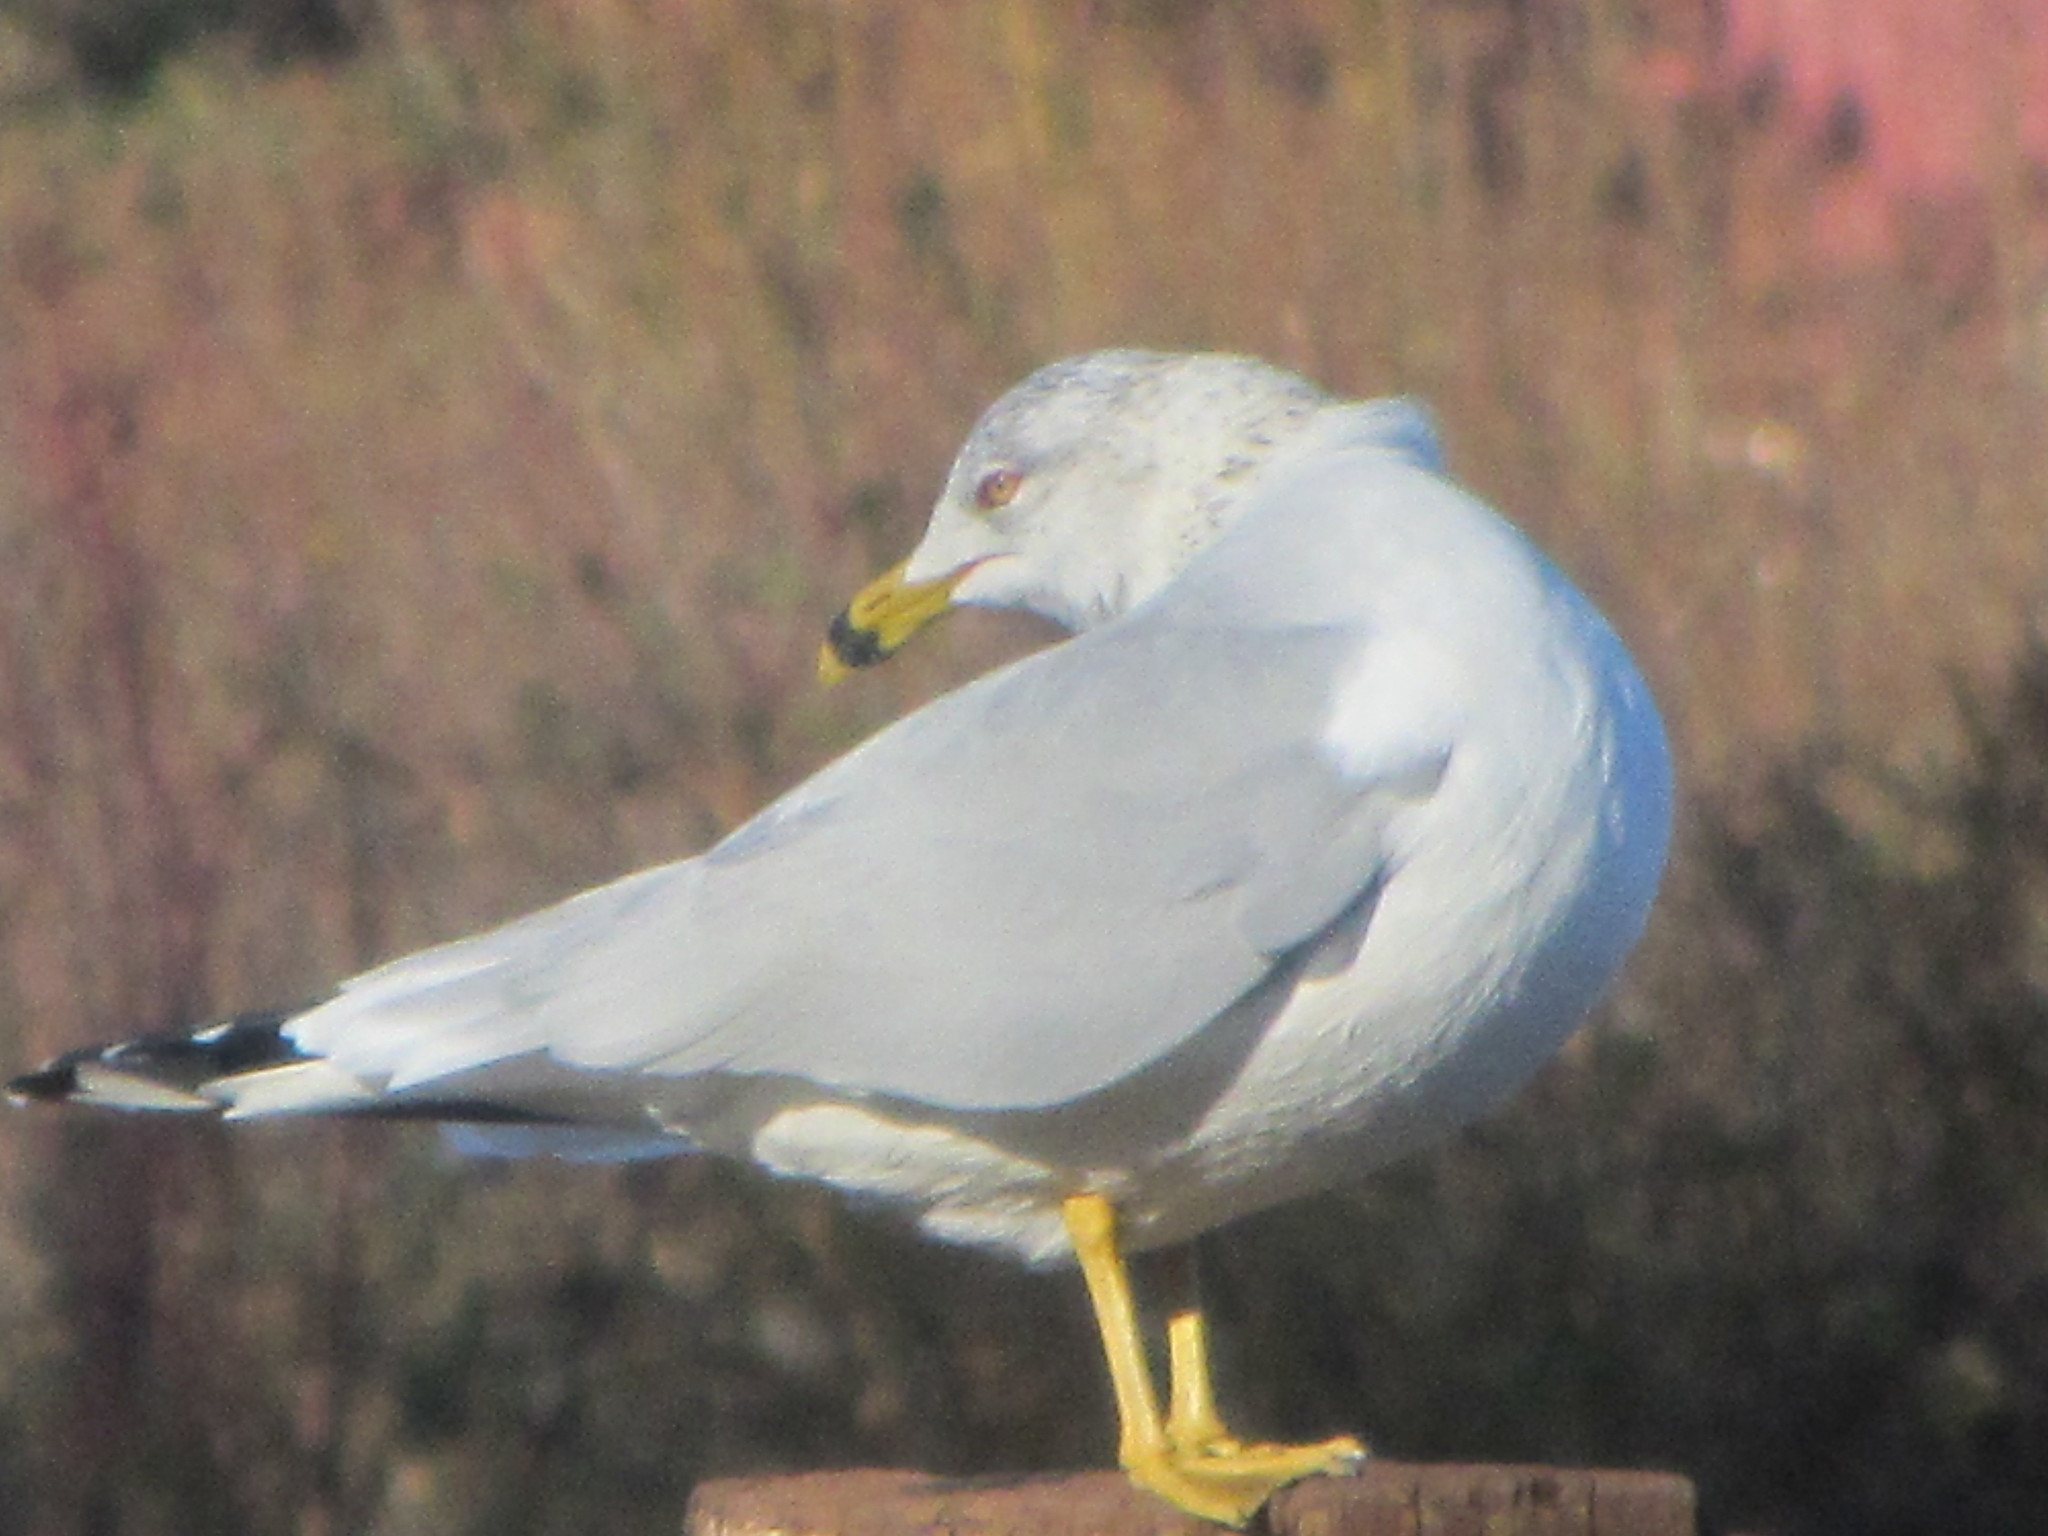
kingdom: Animalia
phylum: Chordata
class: Aves
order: Charadriiformes
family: Laridae
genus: Larus
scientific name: Larus delawarensis
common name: Ring-billed gull
